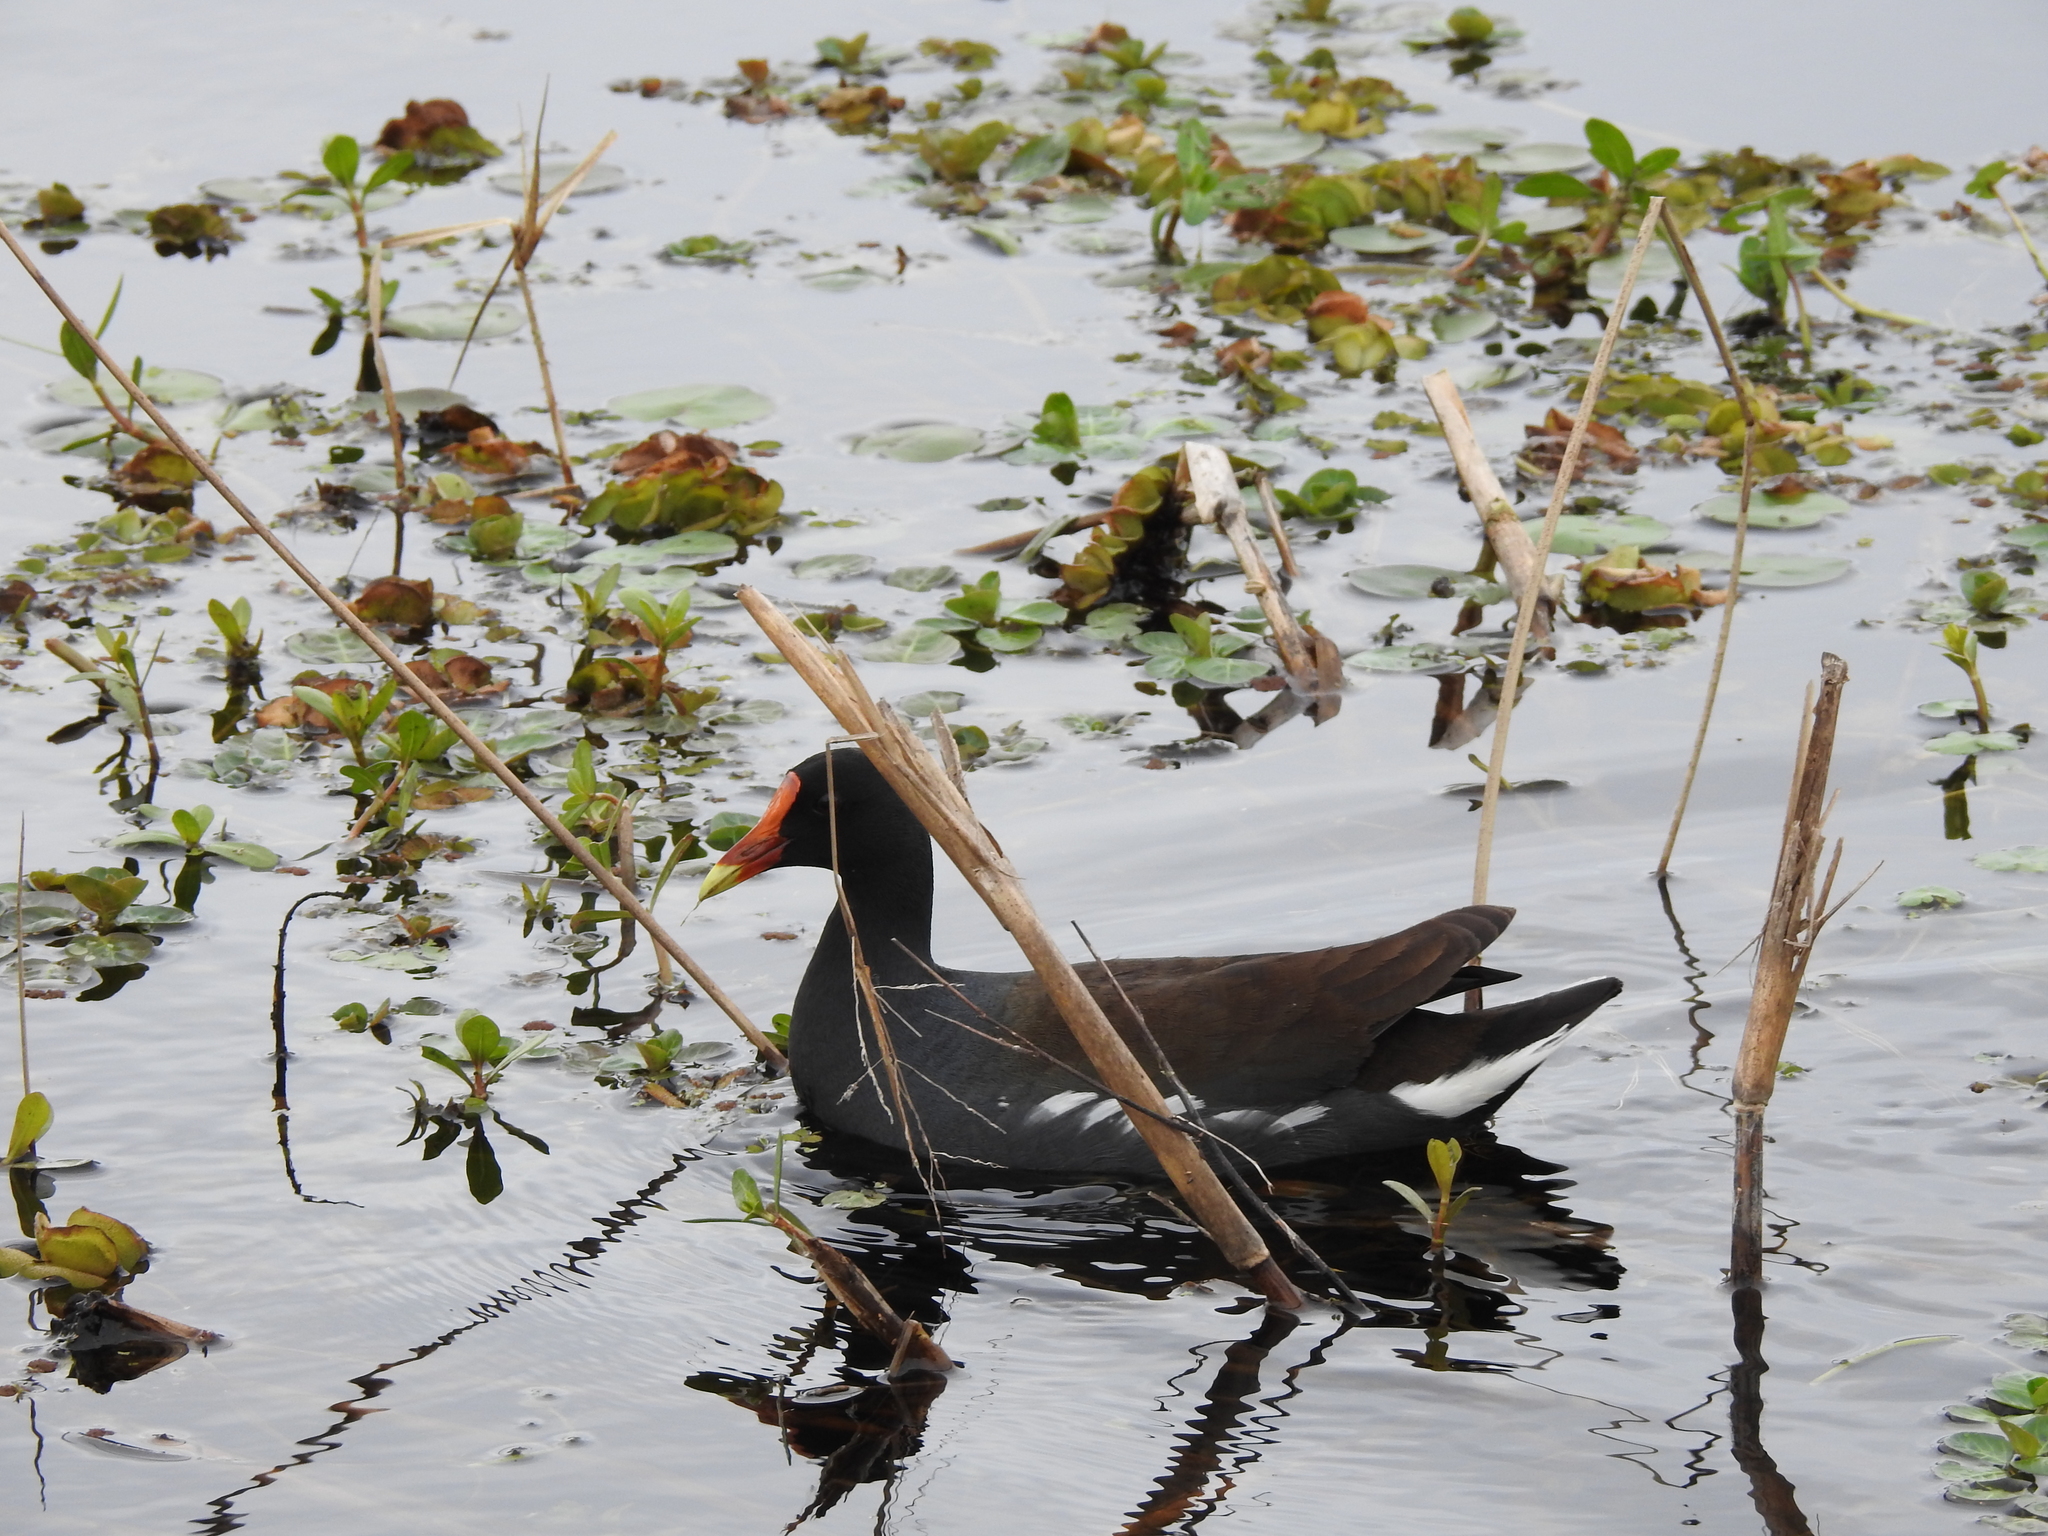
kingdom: Animalia
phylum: Chordata
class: Aves
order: Gruiformes
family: Rallidae
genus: Gallinula
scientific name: Gallinula chloropus
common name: Common moorhen
